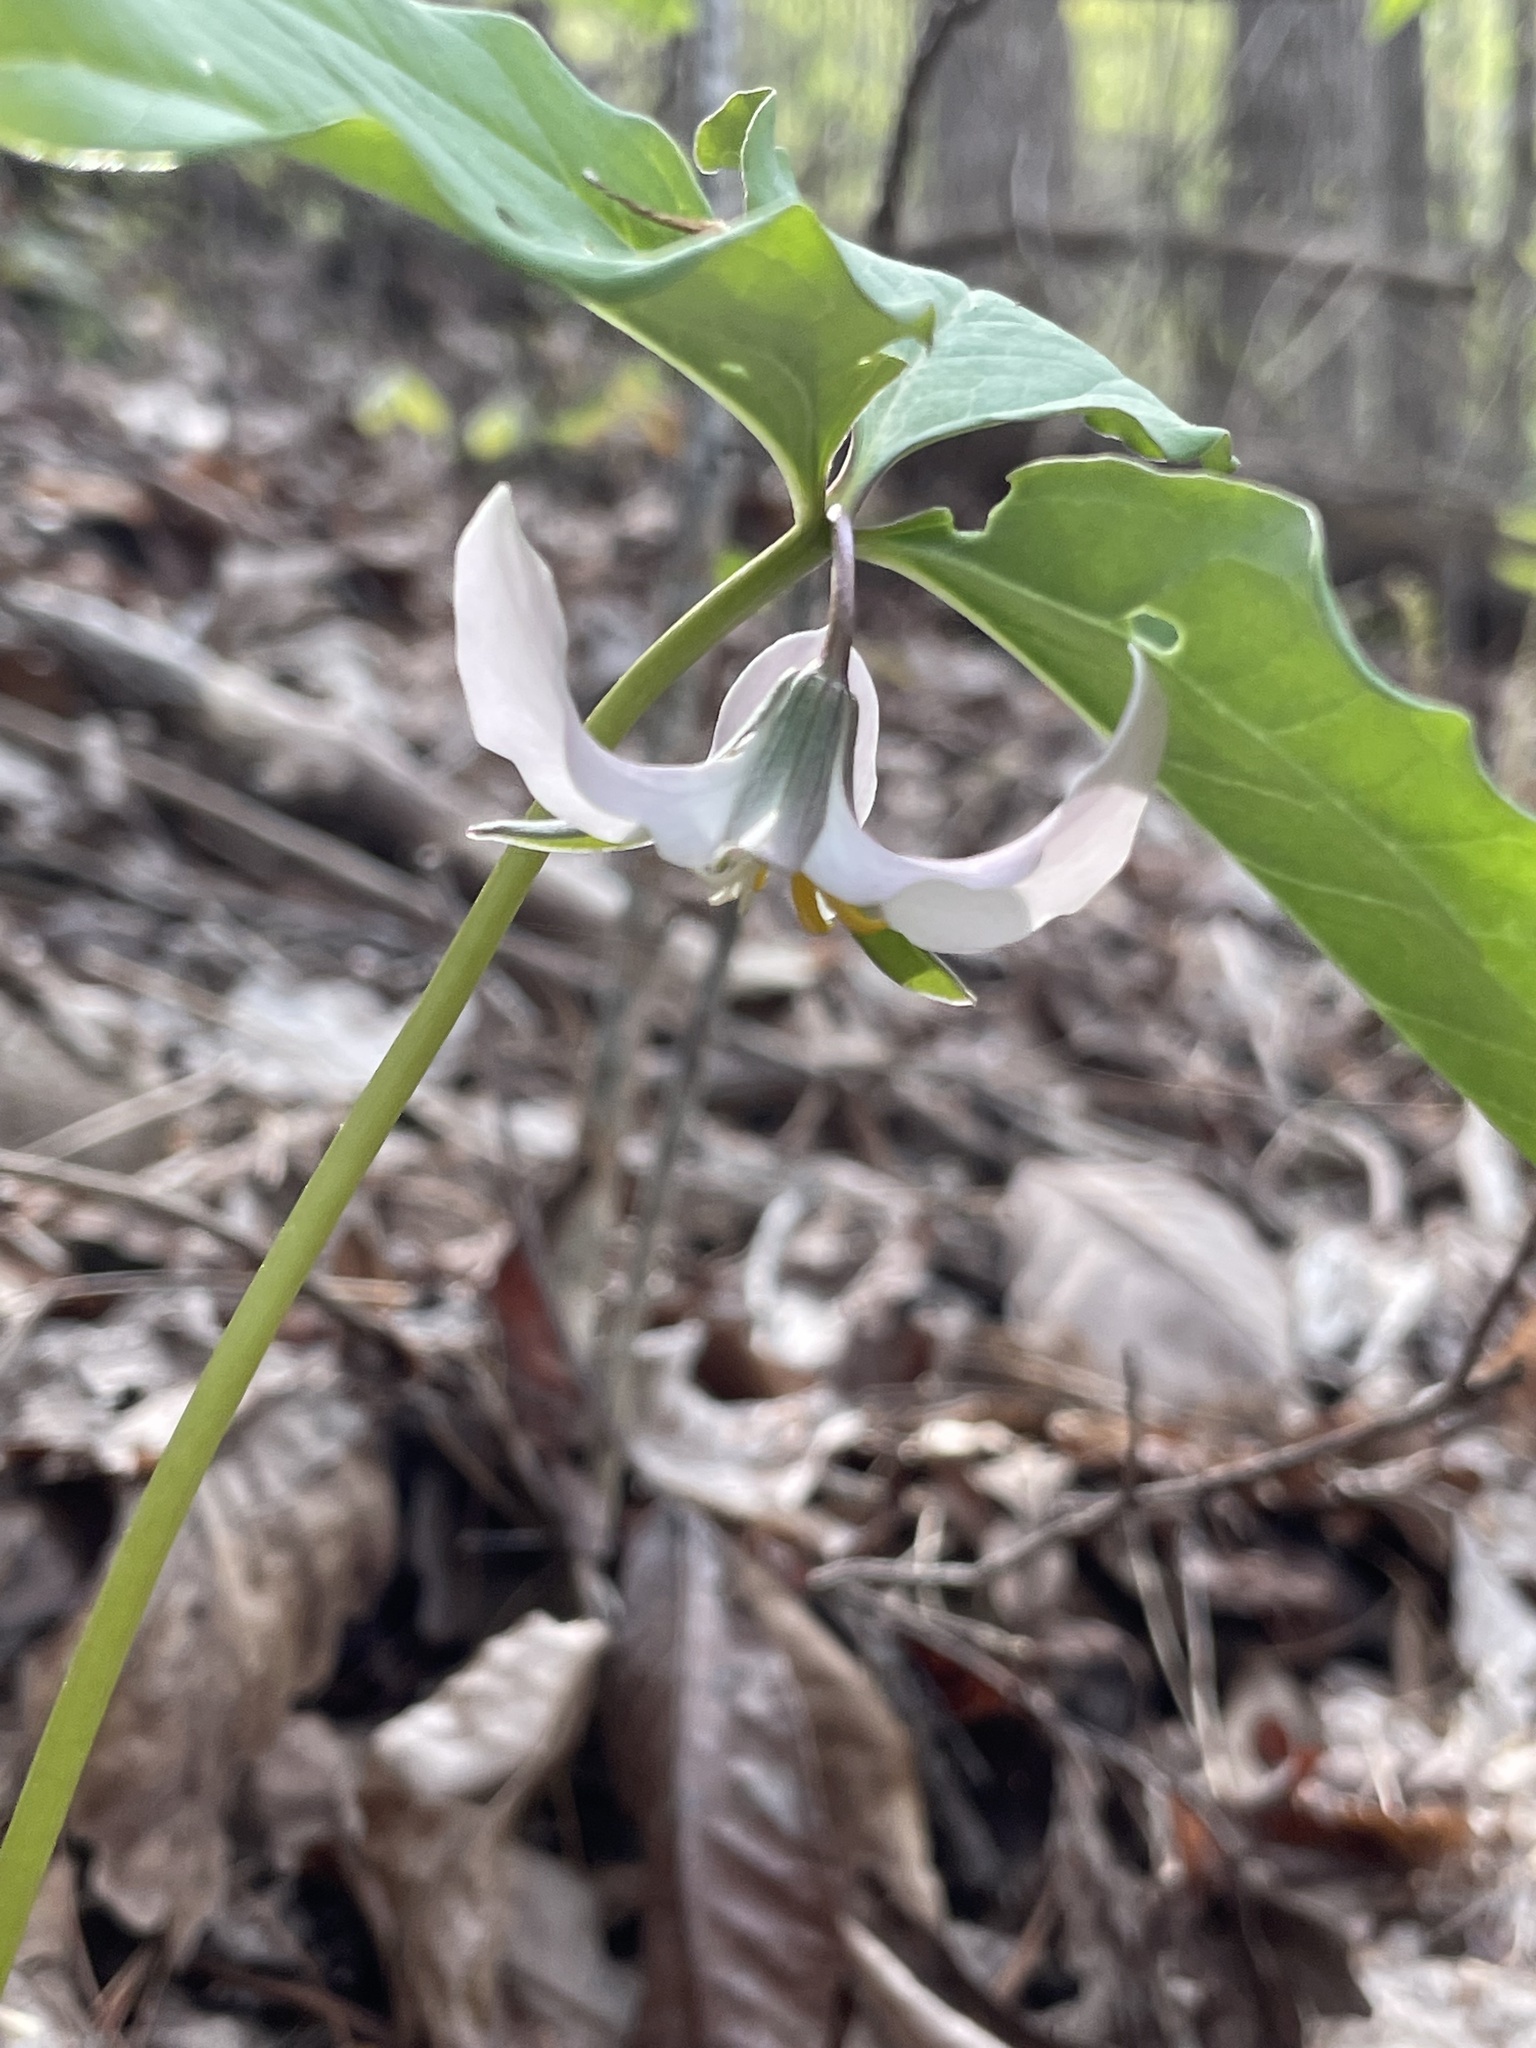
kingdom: Plantae
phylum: Tracheophyta
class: Liliopsida
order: Liliales
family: Melanthiaceae
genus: Trillium
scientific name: Trillium catesbaei
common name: Bashful trillium
